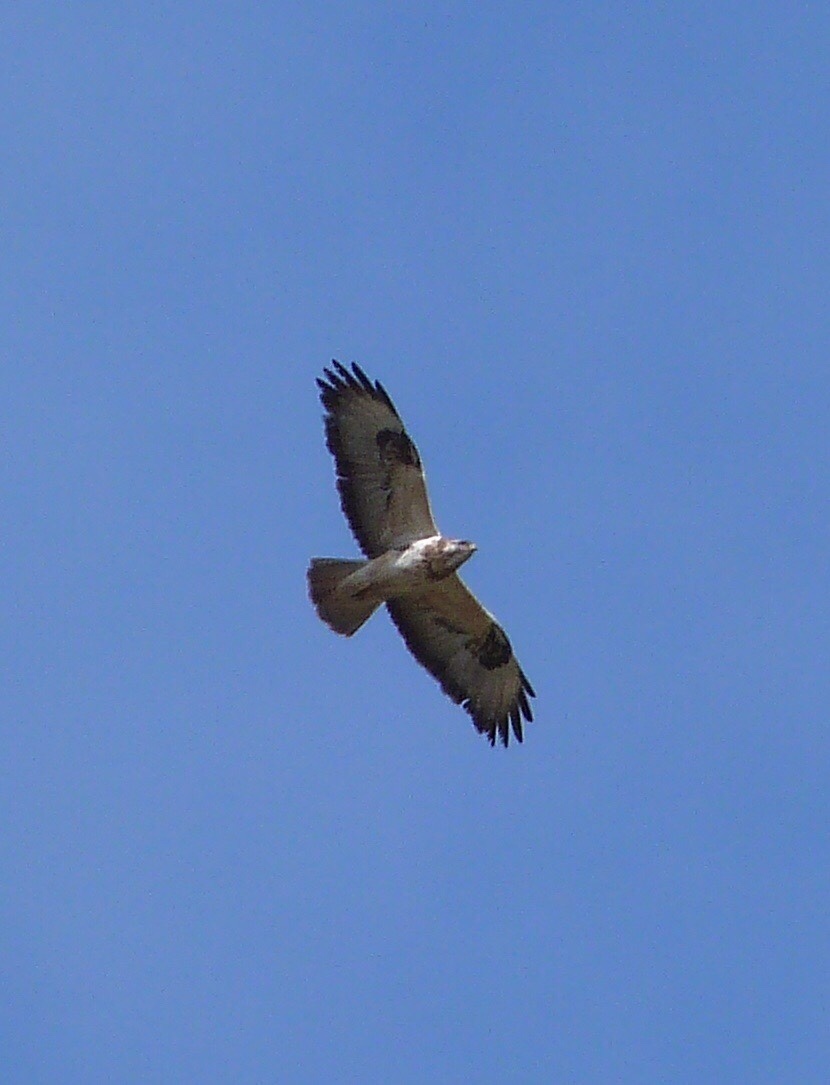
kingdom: Animalia
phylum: Chordata
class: Aves
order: Accipitriformes
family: Accipitridae
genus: Buteo
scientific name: Buteo buteo
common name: Common buzzard
